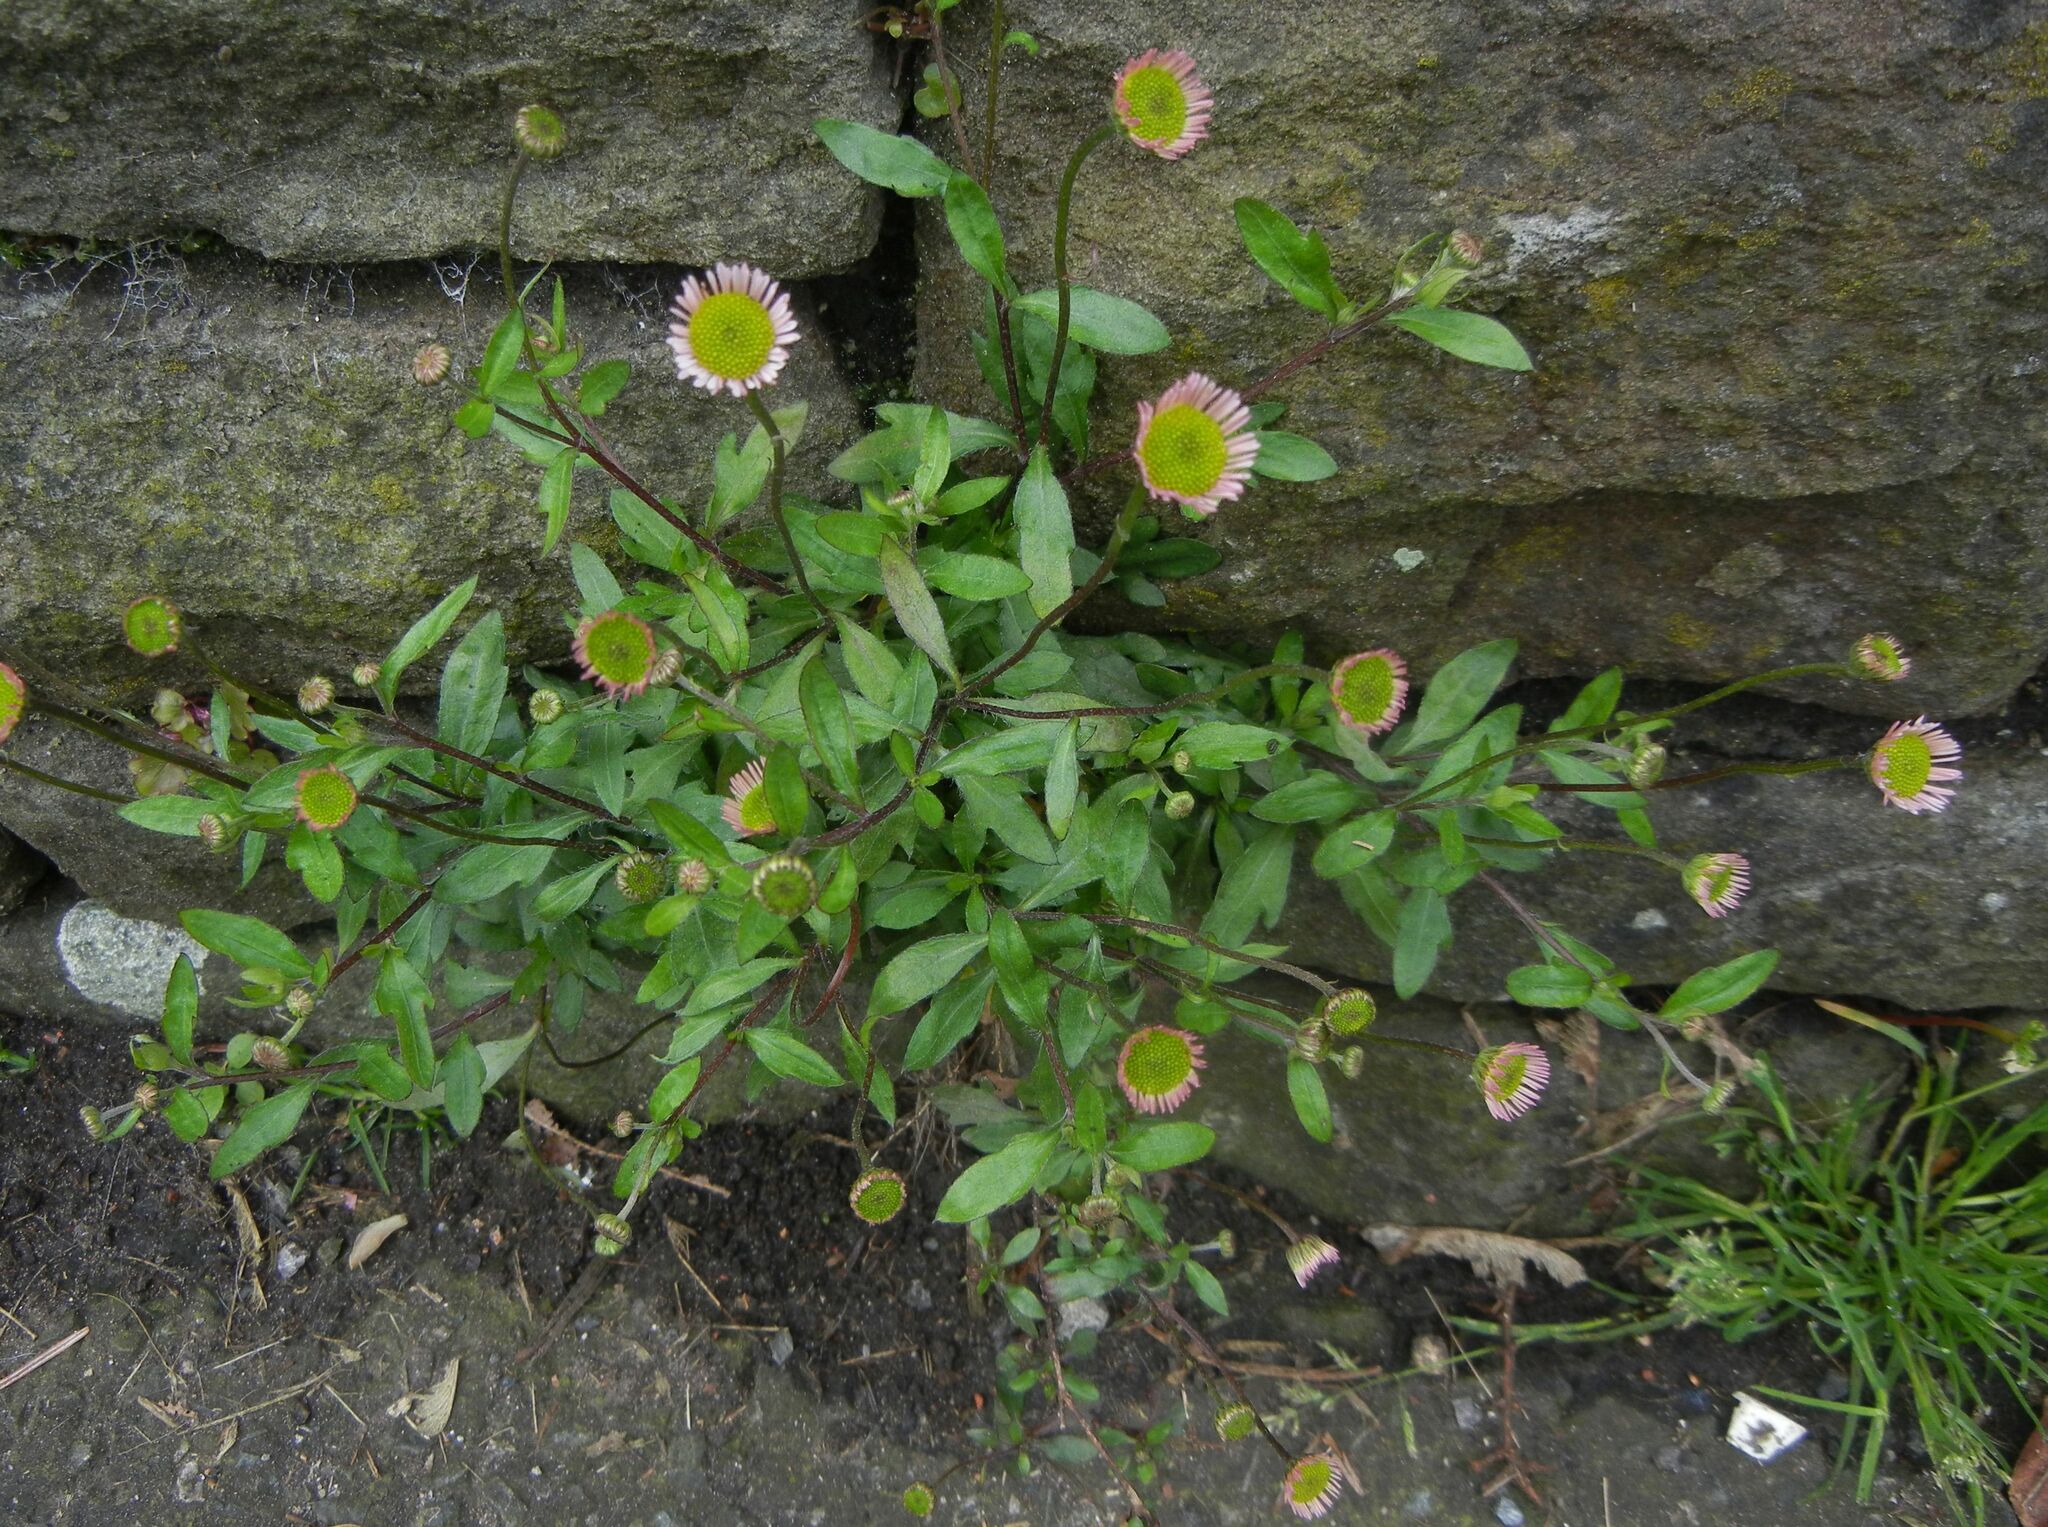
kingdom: Plantae
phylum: Tracheophyta
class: Magnoliopsida
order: Asterales
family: Asteraceae
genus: Erigeron
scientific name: Erigeron karvinskianus
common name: Mexican fleabane
